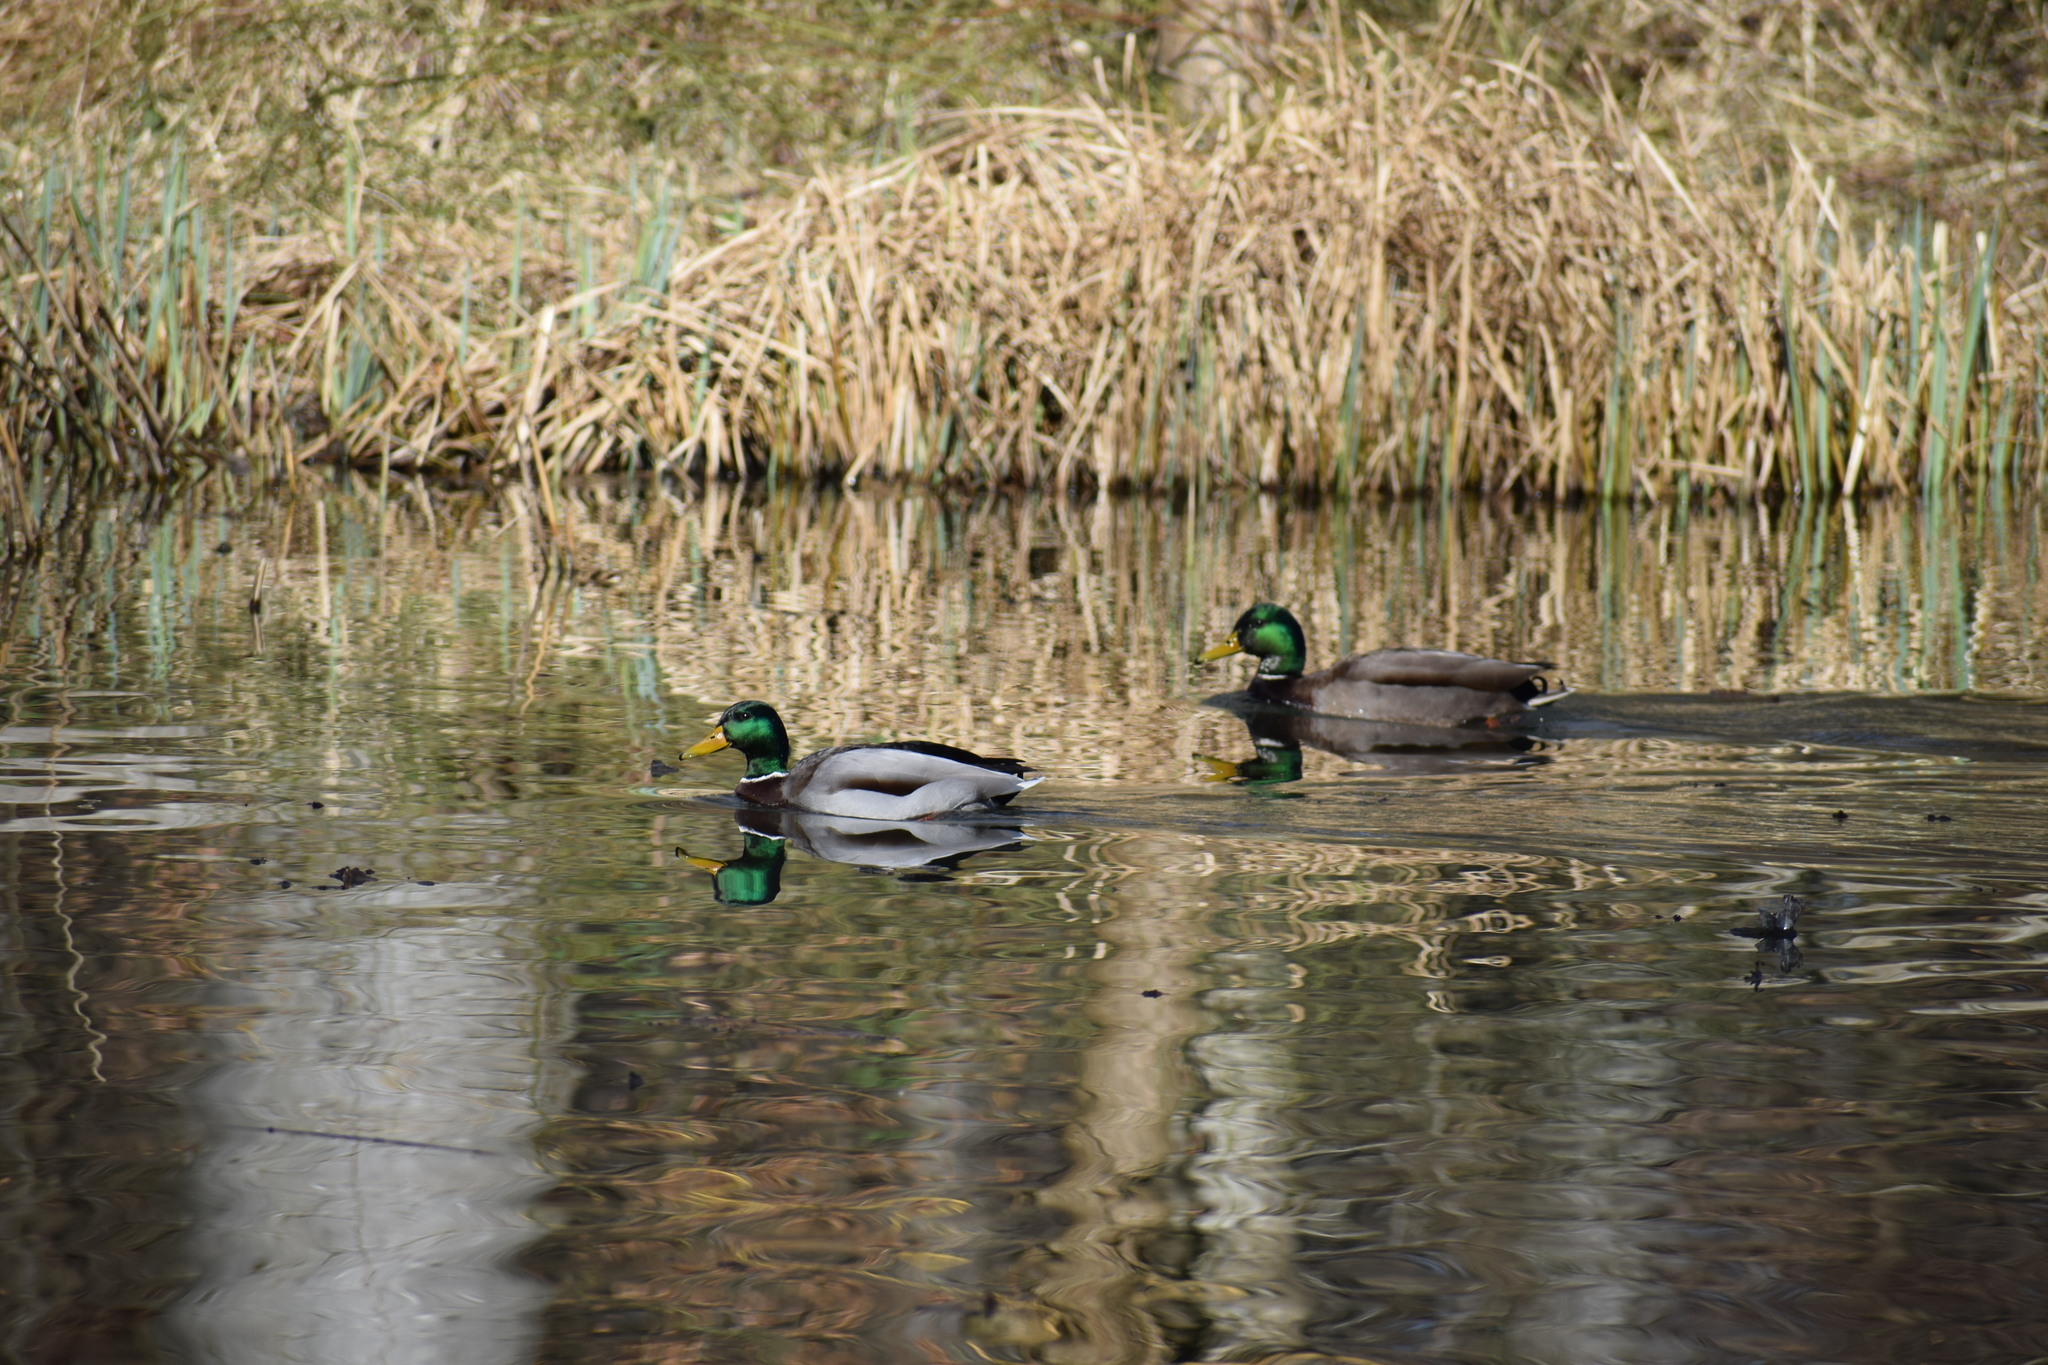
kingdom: Animalia
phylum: Chordata
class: Aves
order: Anseriformes
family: Anatidae
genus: Anas
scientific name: Anas platyrhynchos
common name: Mallard
